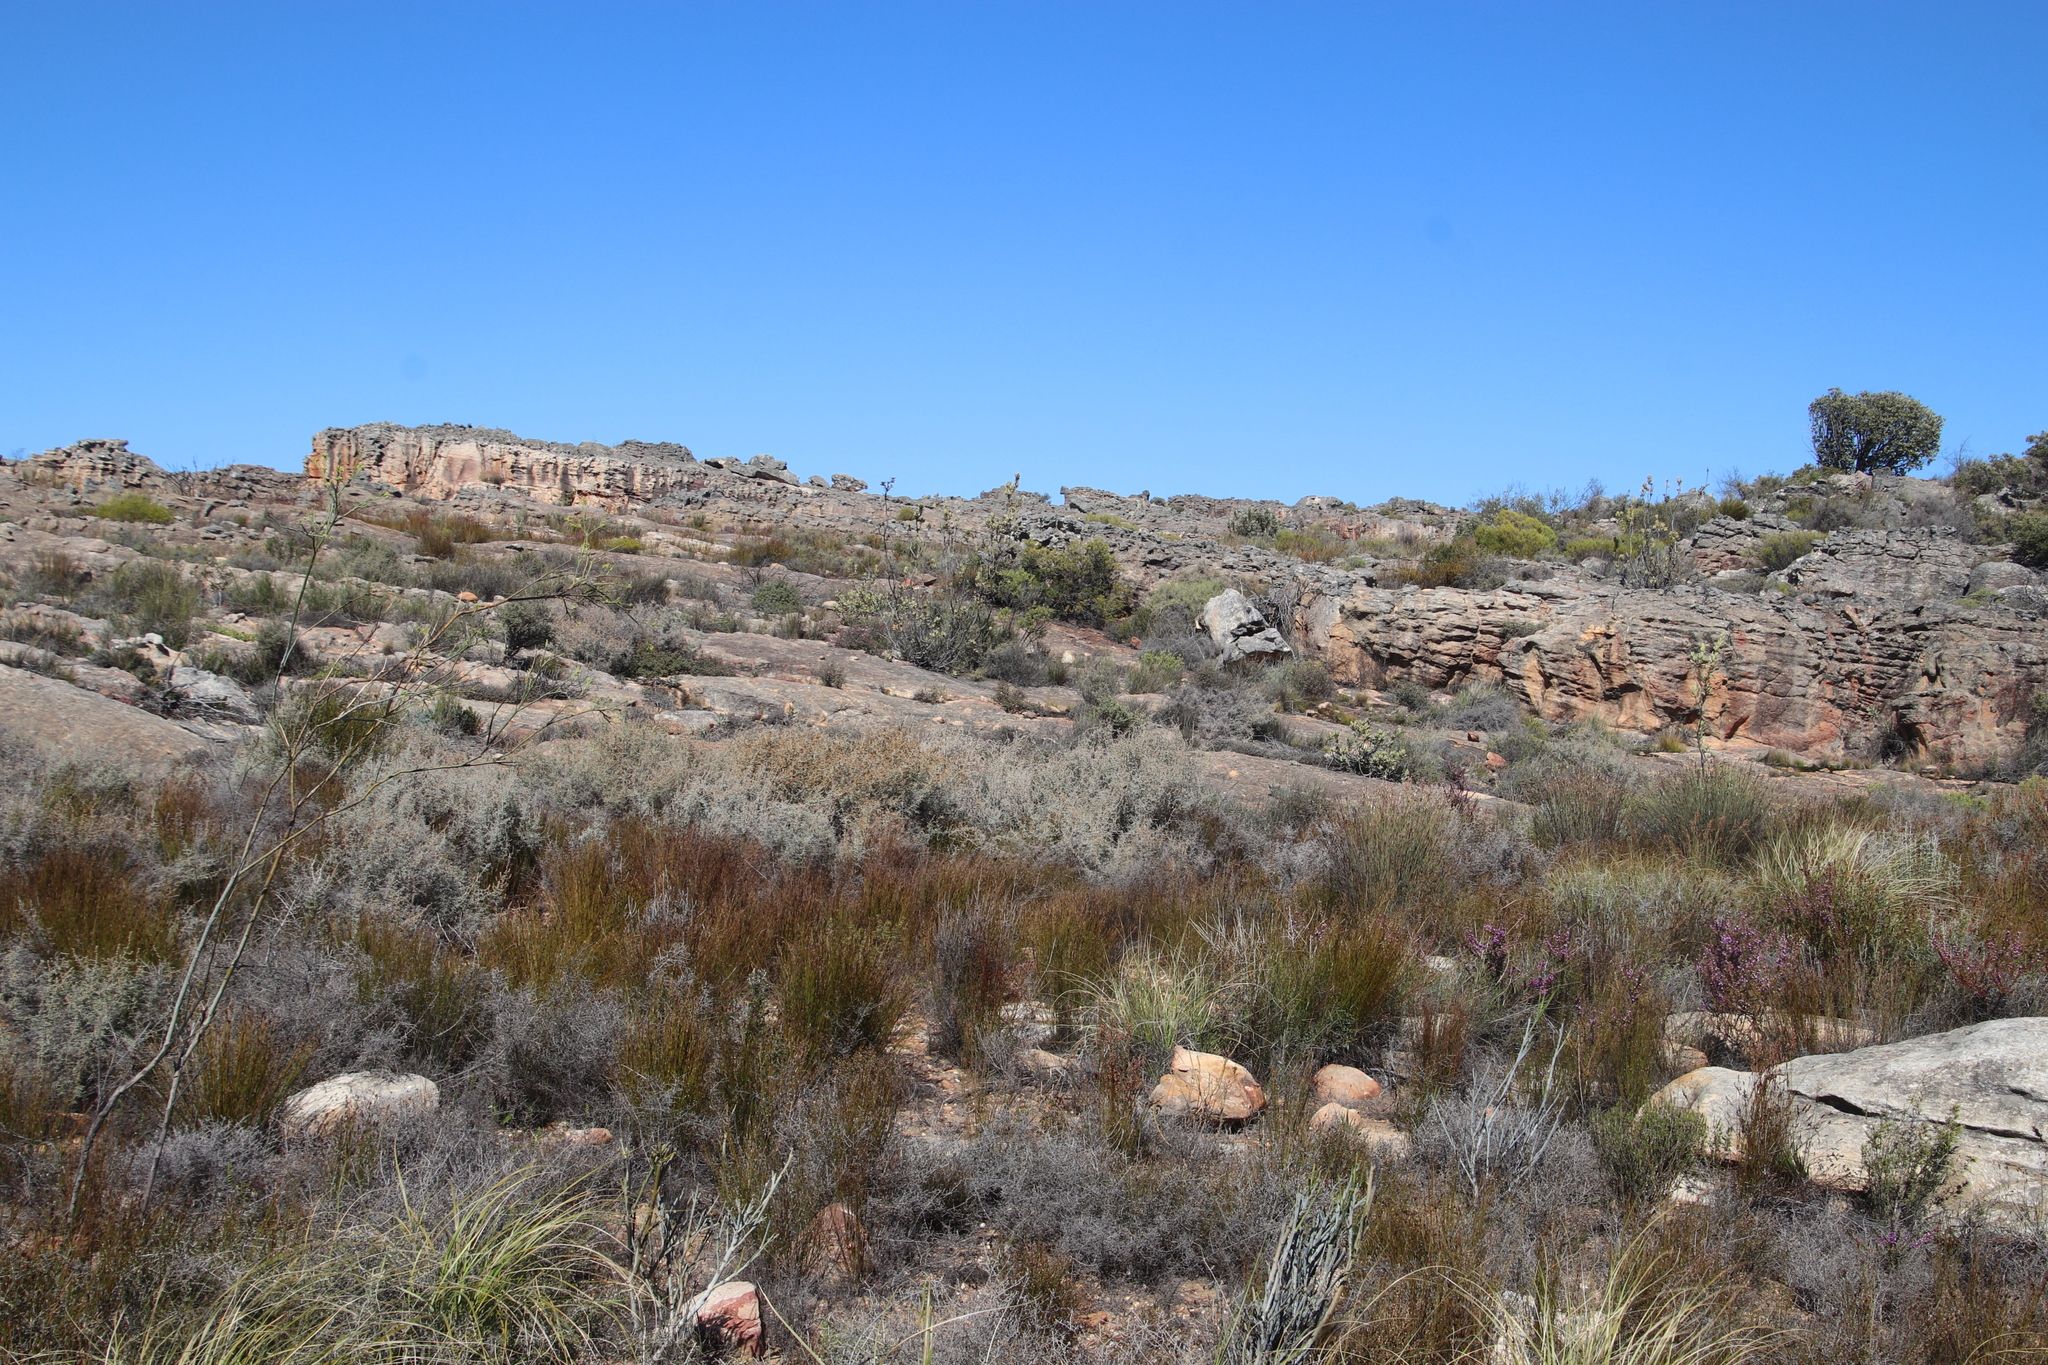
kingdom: Plantae
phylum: Tracheophyta
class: Magnoliopsida
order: Proteales
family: Proteaceae
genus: Protea
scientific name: Protea glabra
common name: Chestnut sugarbush
